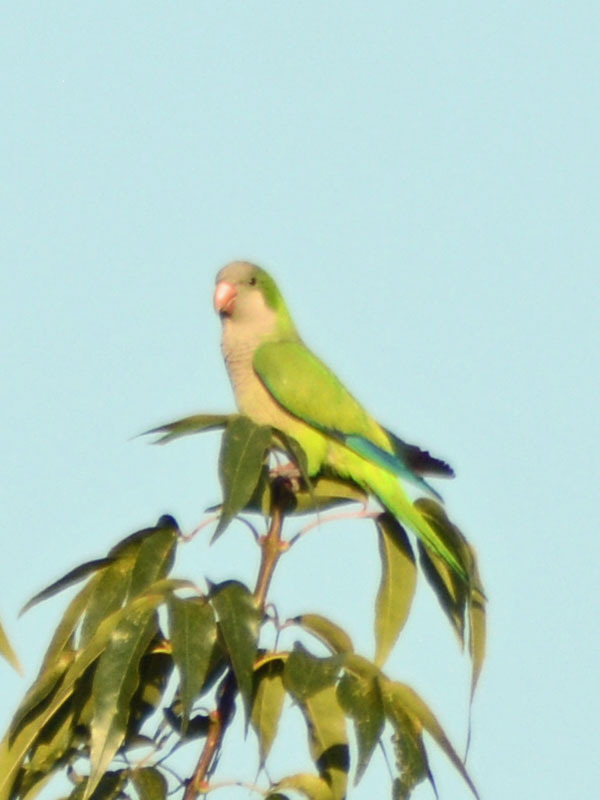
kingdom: Animalia
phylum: Chordata
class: Aves
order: Psittaciformes
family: Psittacidae
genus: Myiopsitta
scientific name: Myiopsitta monachus
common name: Monk parakeet
